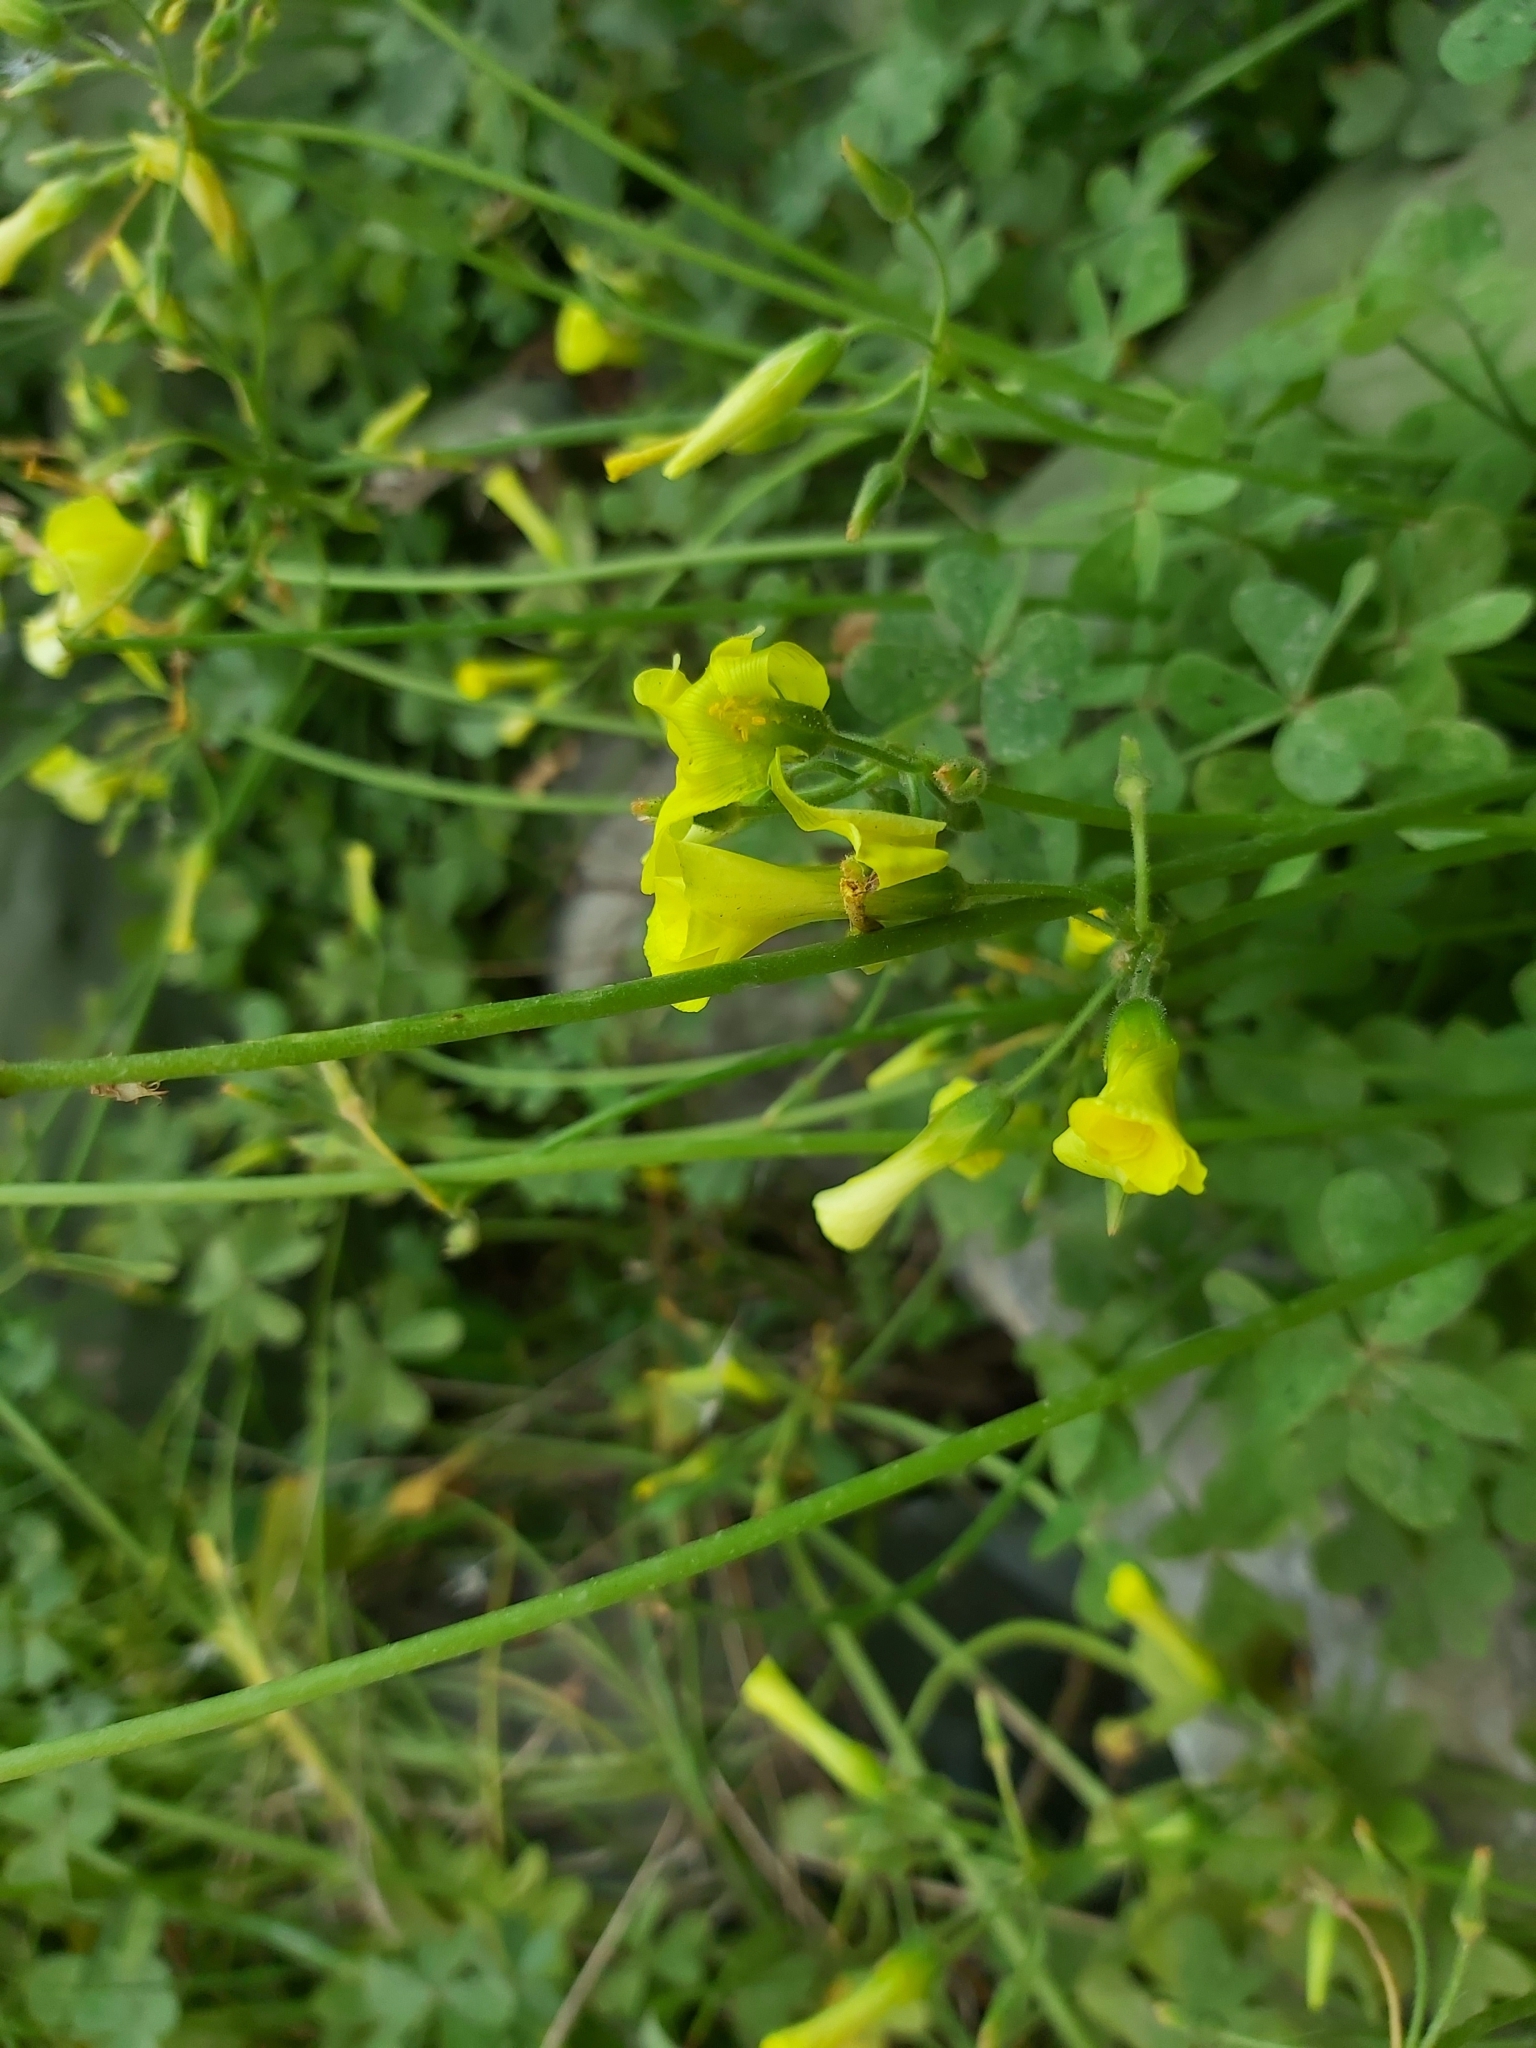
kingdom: Plantae
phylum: Tracheophyta
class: Magnoliopsida
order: Oxalidales
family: Oxalidaceae
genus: Oxalis
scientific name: Oxalis pes-caprae
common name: Bermuda-buttercup
